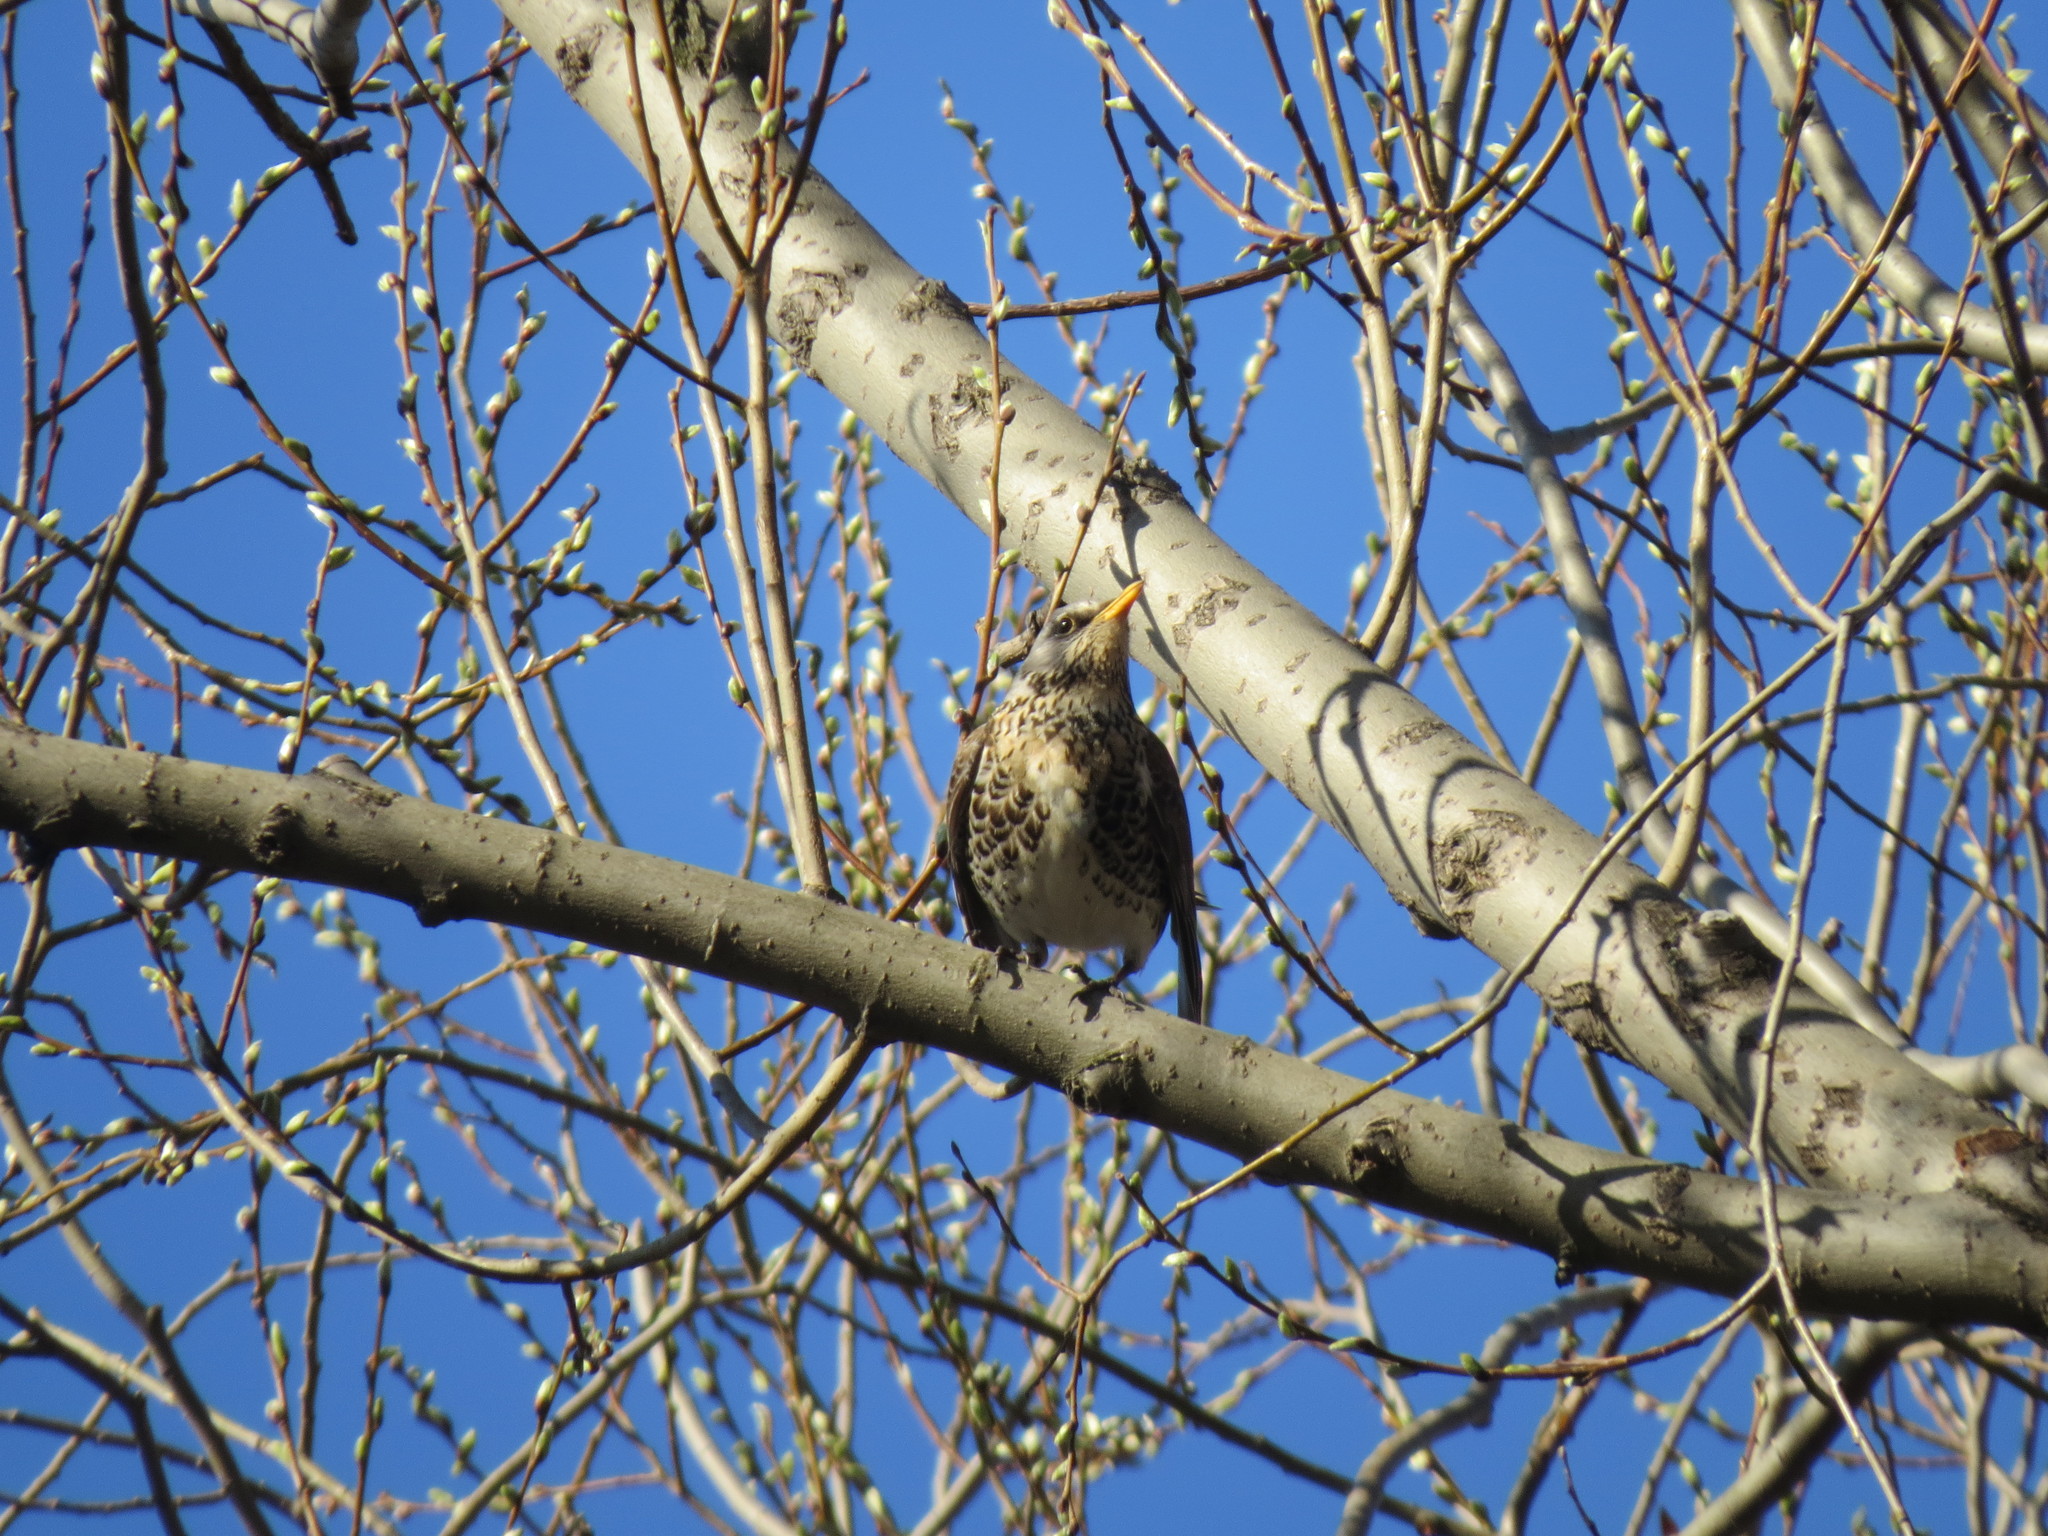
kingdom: Animalia
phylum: Chordata
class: Aves
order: Passeriformes
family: Turdidae
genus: Turdus
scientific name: Turdus pilaris
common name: Fieldfare
